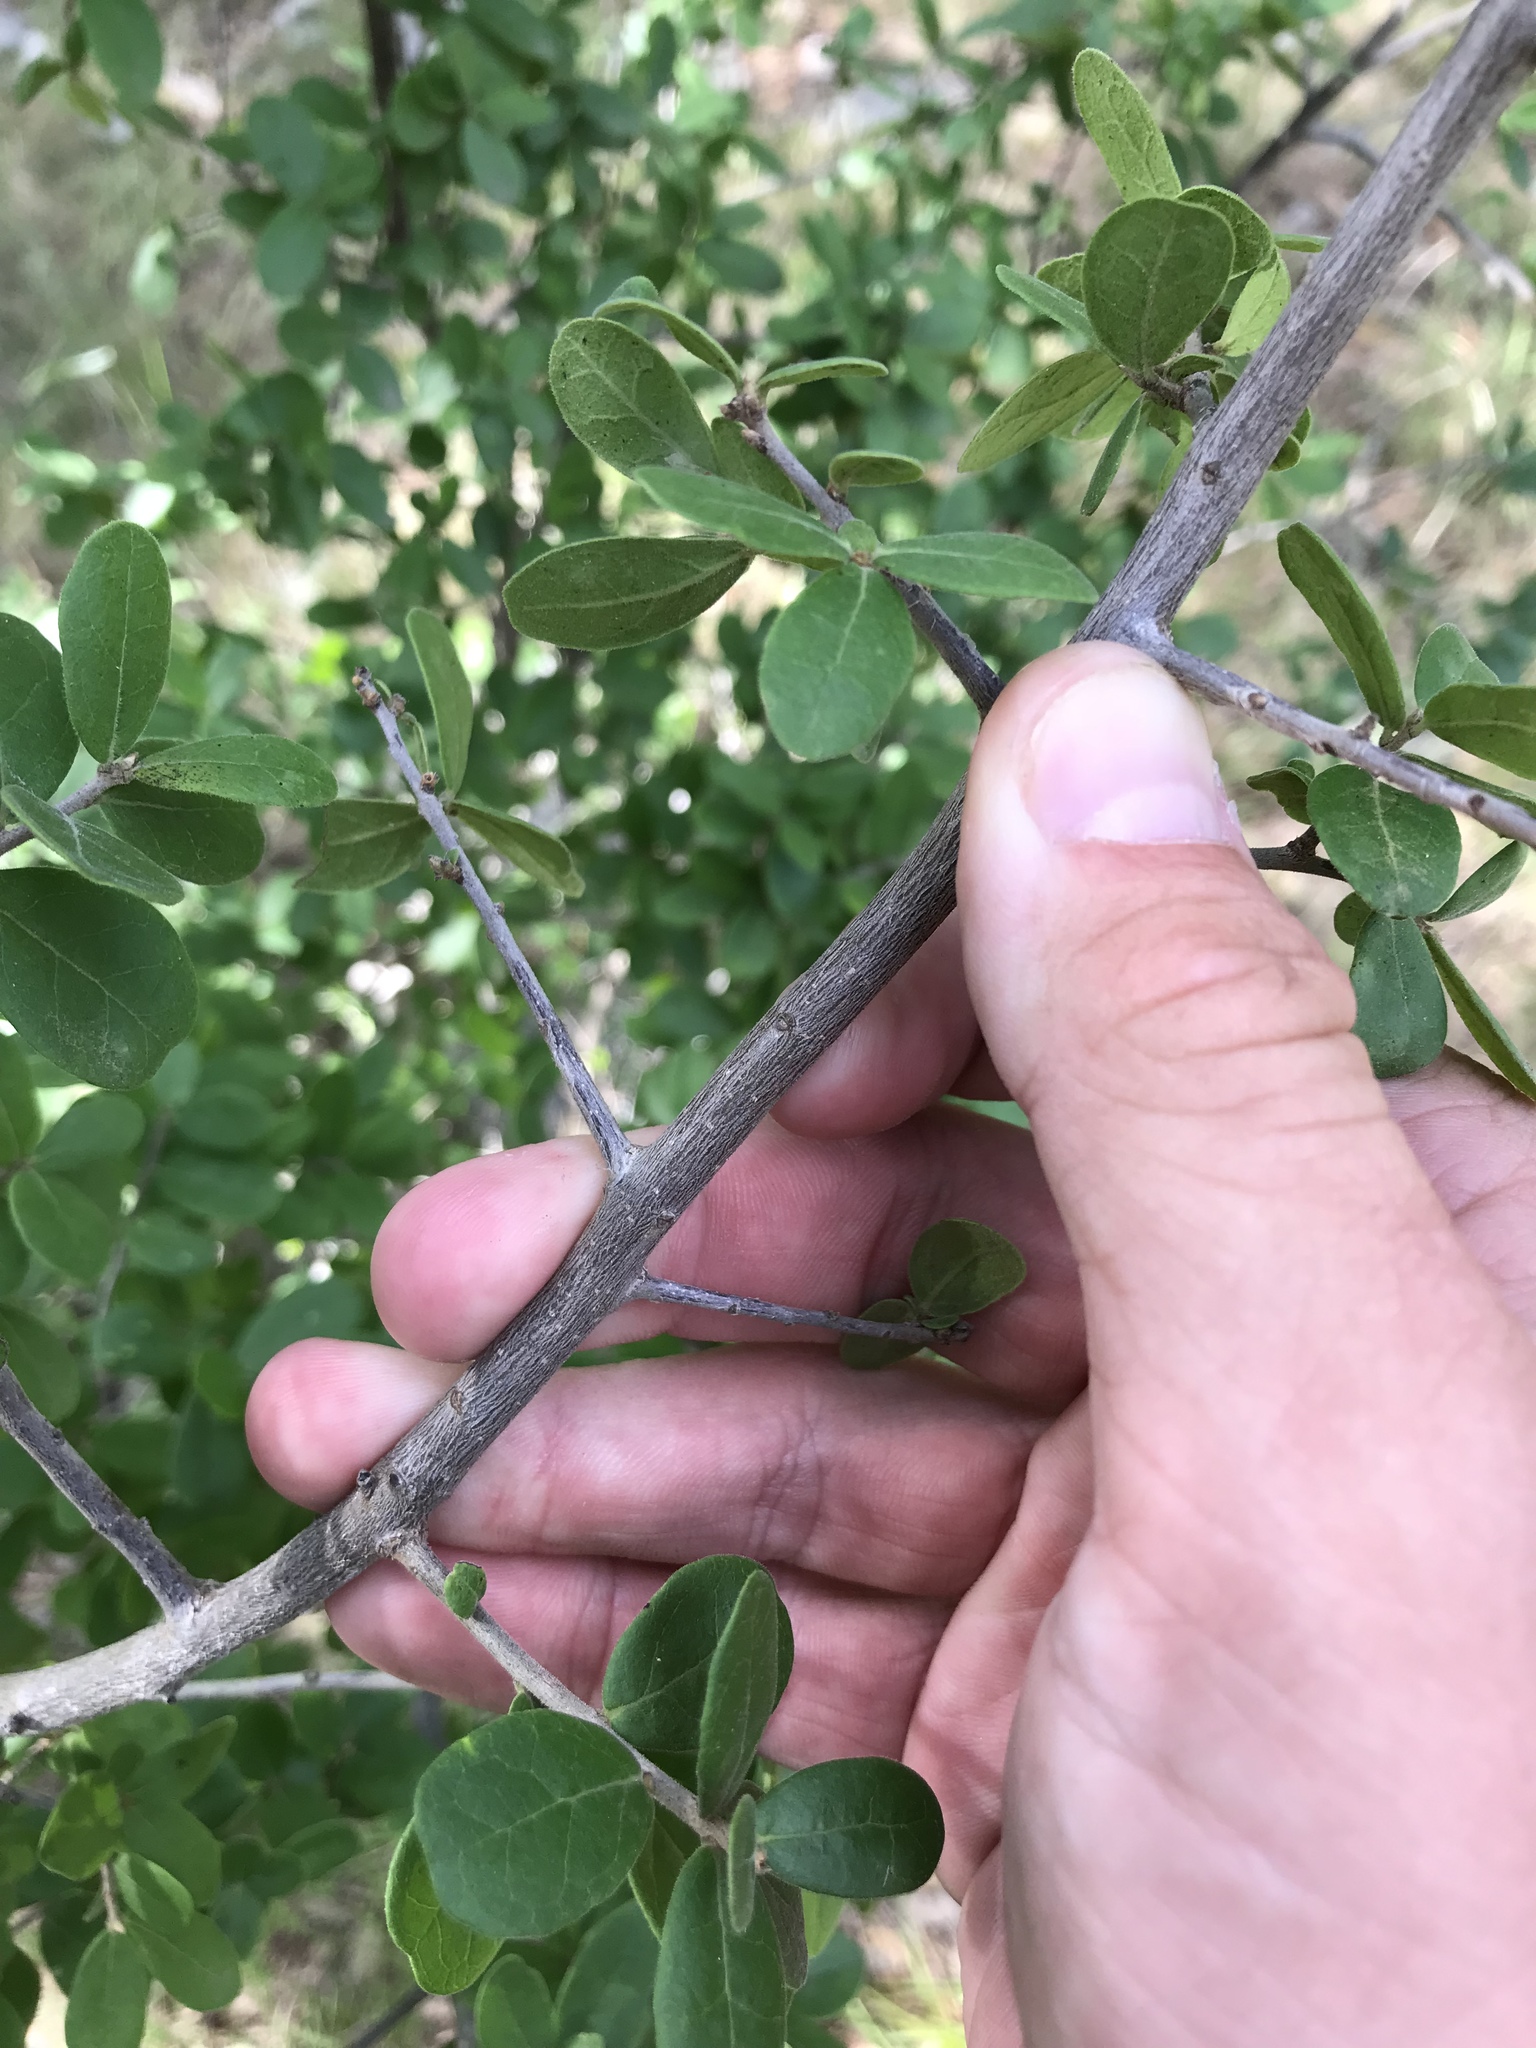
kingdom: Plantae
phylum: Tracheophyta
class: Magnoliopsida
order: Ericales
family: Ebenaceae
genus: Diospyros
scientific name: Diospyros texana
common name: Texas persimmon
